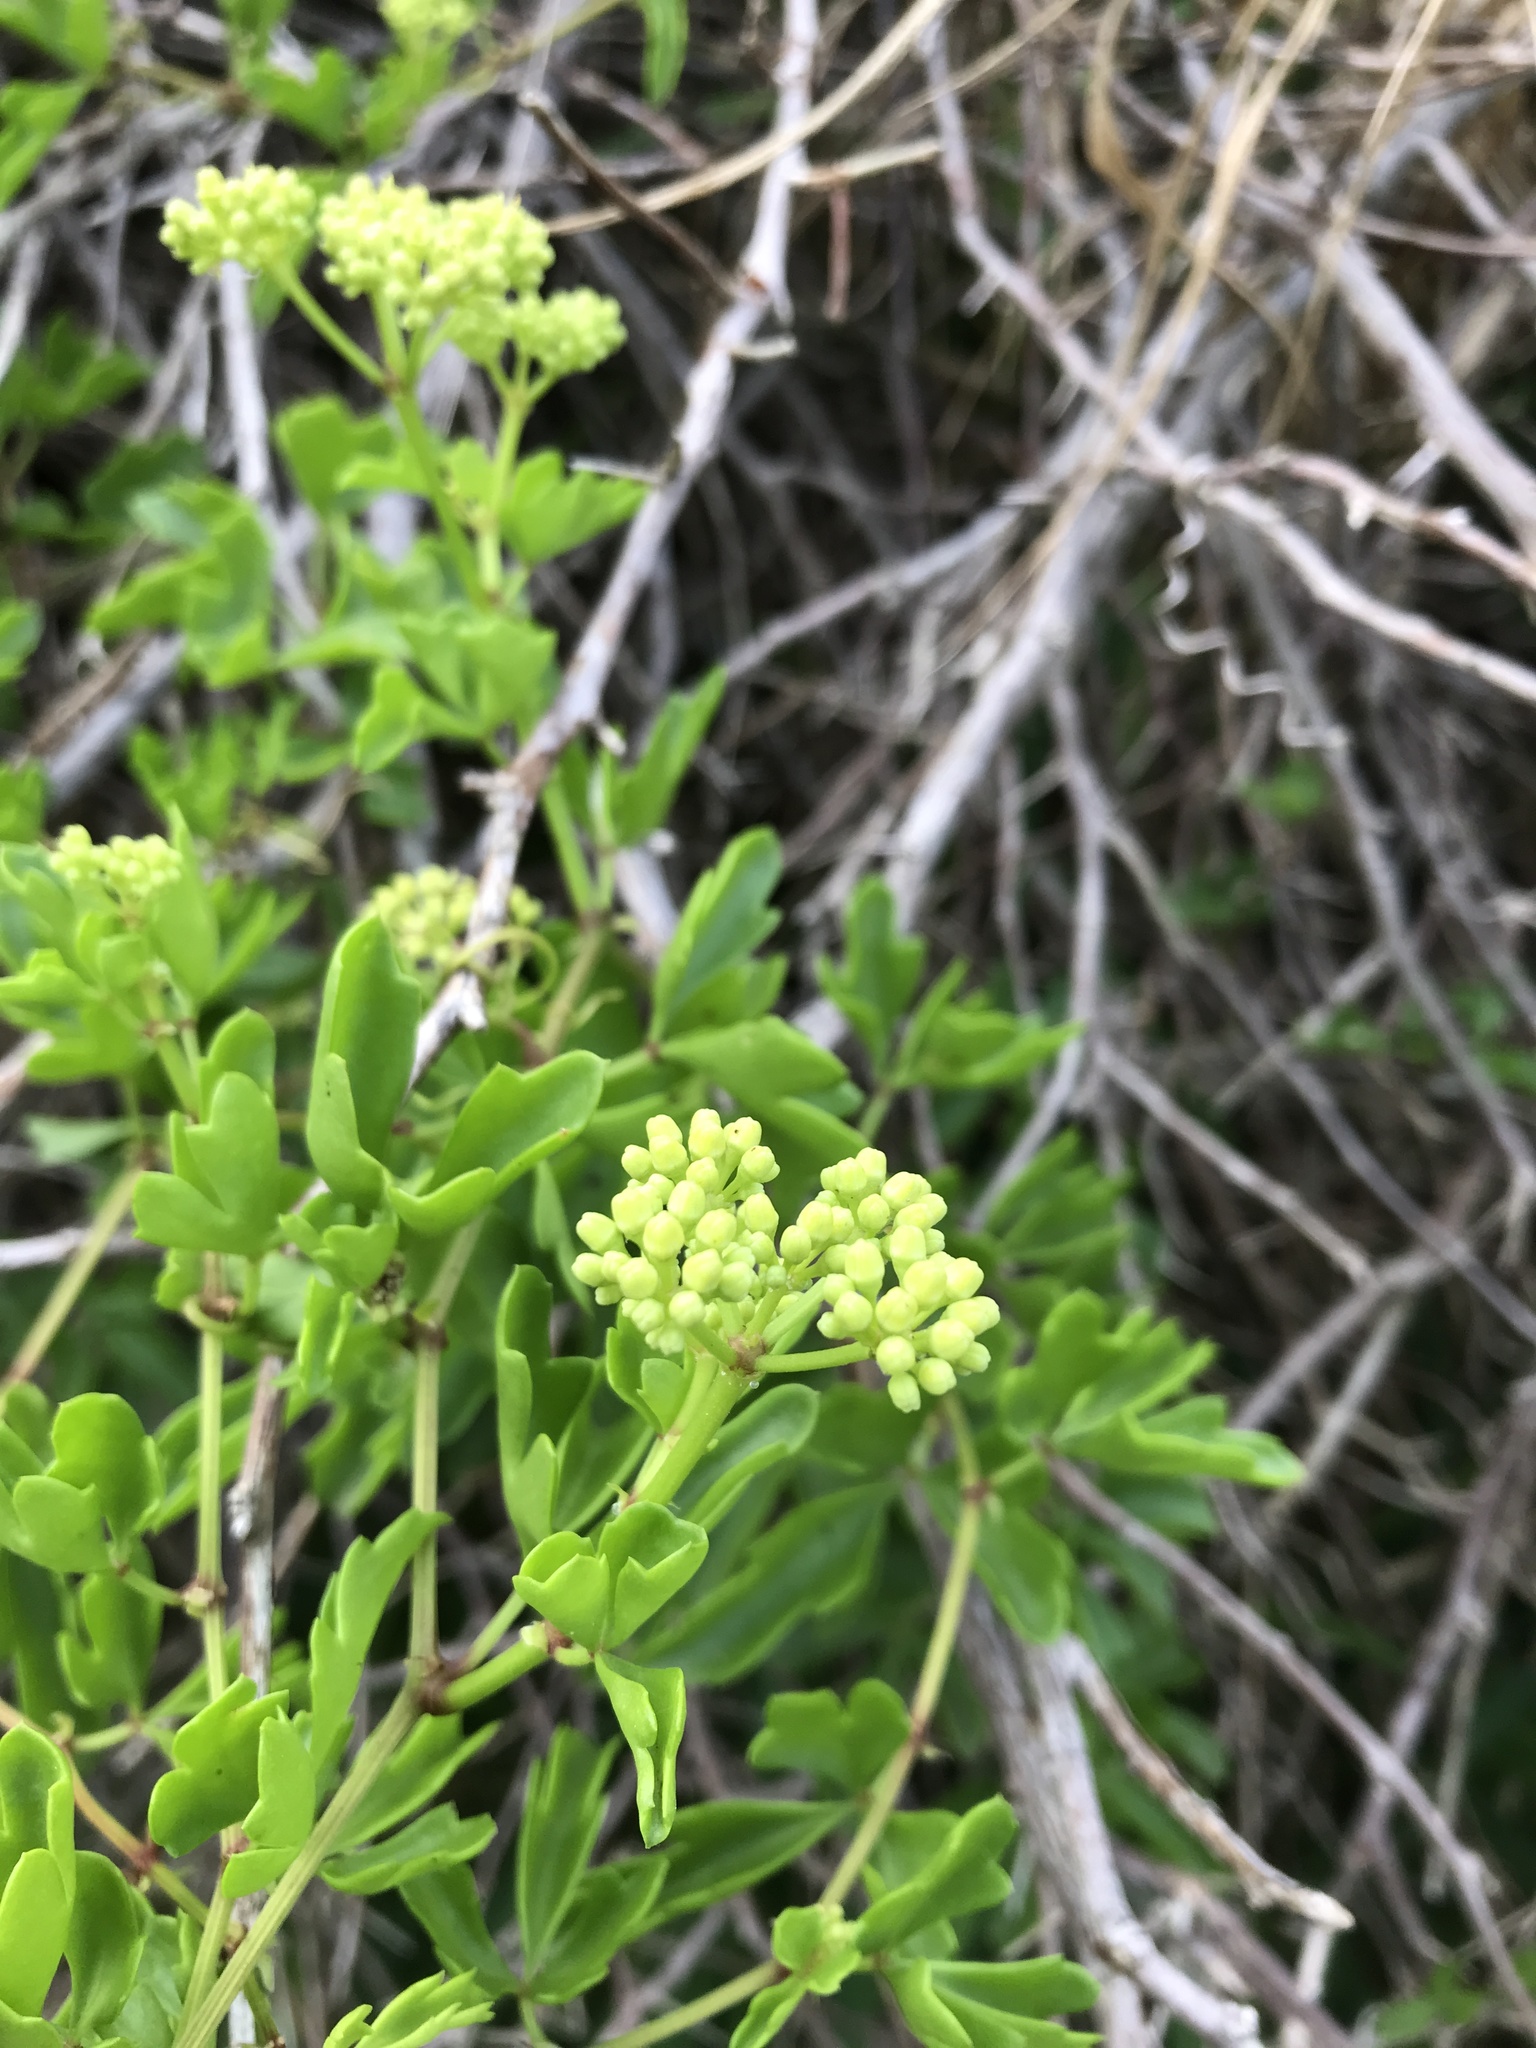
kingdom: Plantae
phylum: Tracheophyta
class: Magnoliopsida
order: Vitales
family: Vitaceae
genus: Cissus
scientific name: Cissus trifoliata
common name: Vine-sorrel
